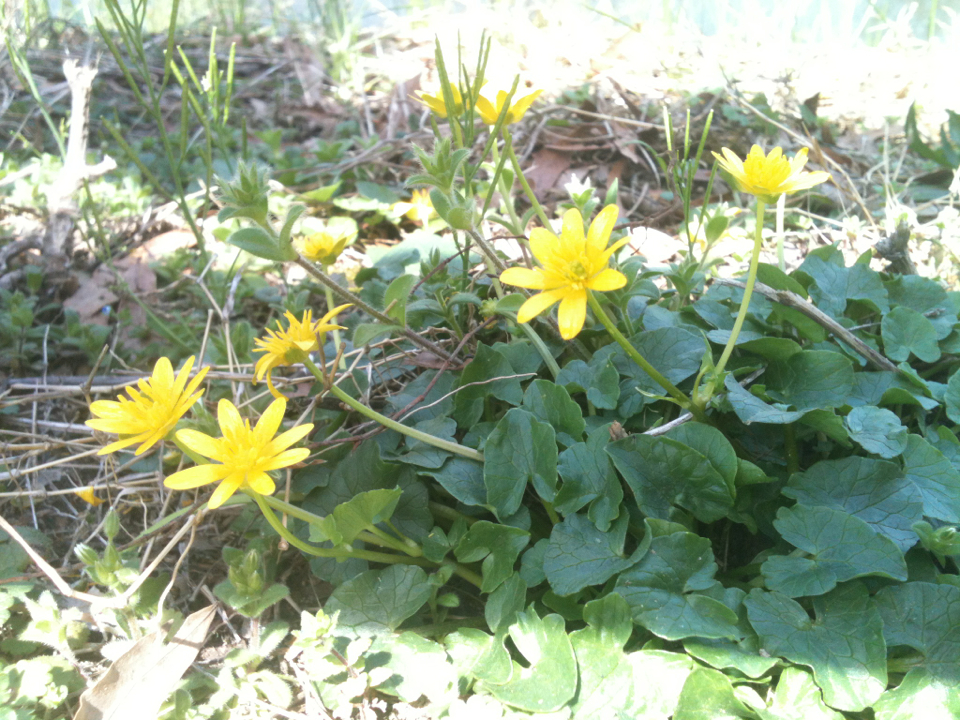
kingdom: Plantae
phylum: Tracheophyta
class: Magnoliopsida
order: Ranunculales
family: Ranunculaceae
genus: Ficaria
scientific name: Ficaria verna
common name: Lesser celandine
